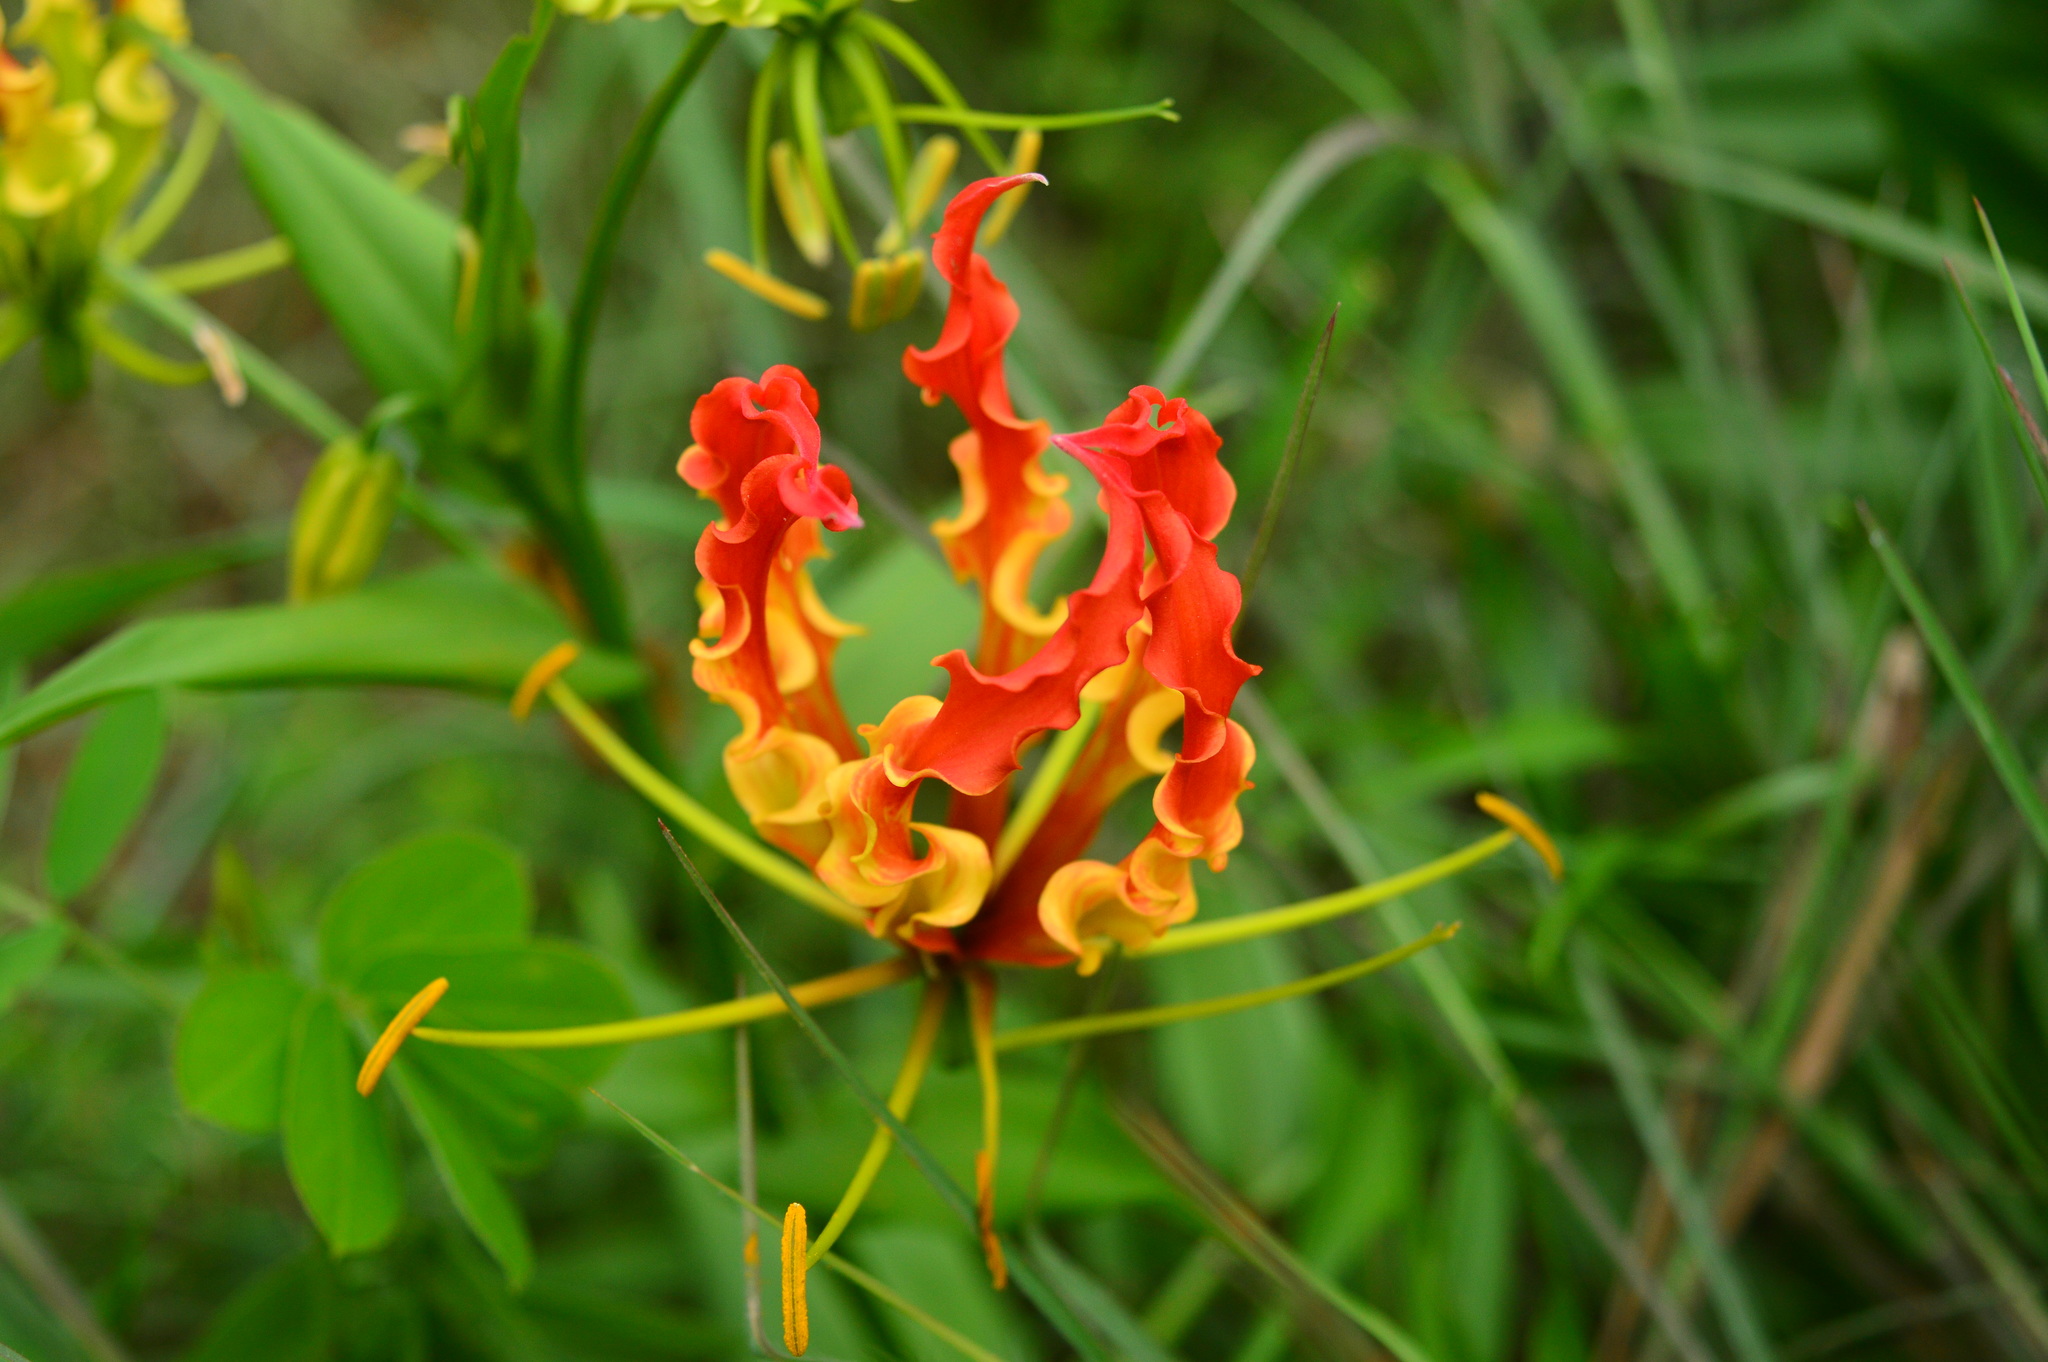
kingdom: Plantae
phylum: Tracheophyta
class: Liliopsida
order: Liliales
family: Colchicaceae
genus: Gloriosa
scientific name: Gloriosa superba
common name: Flame lily
